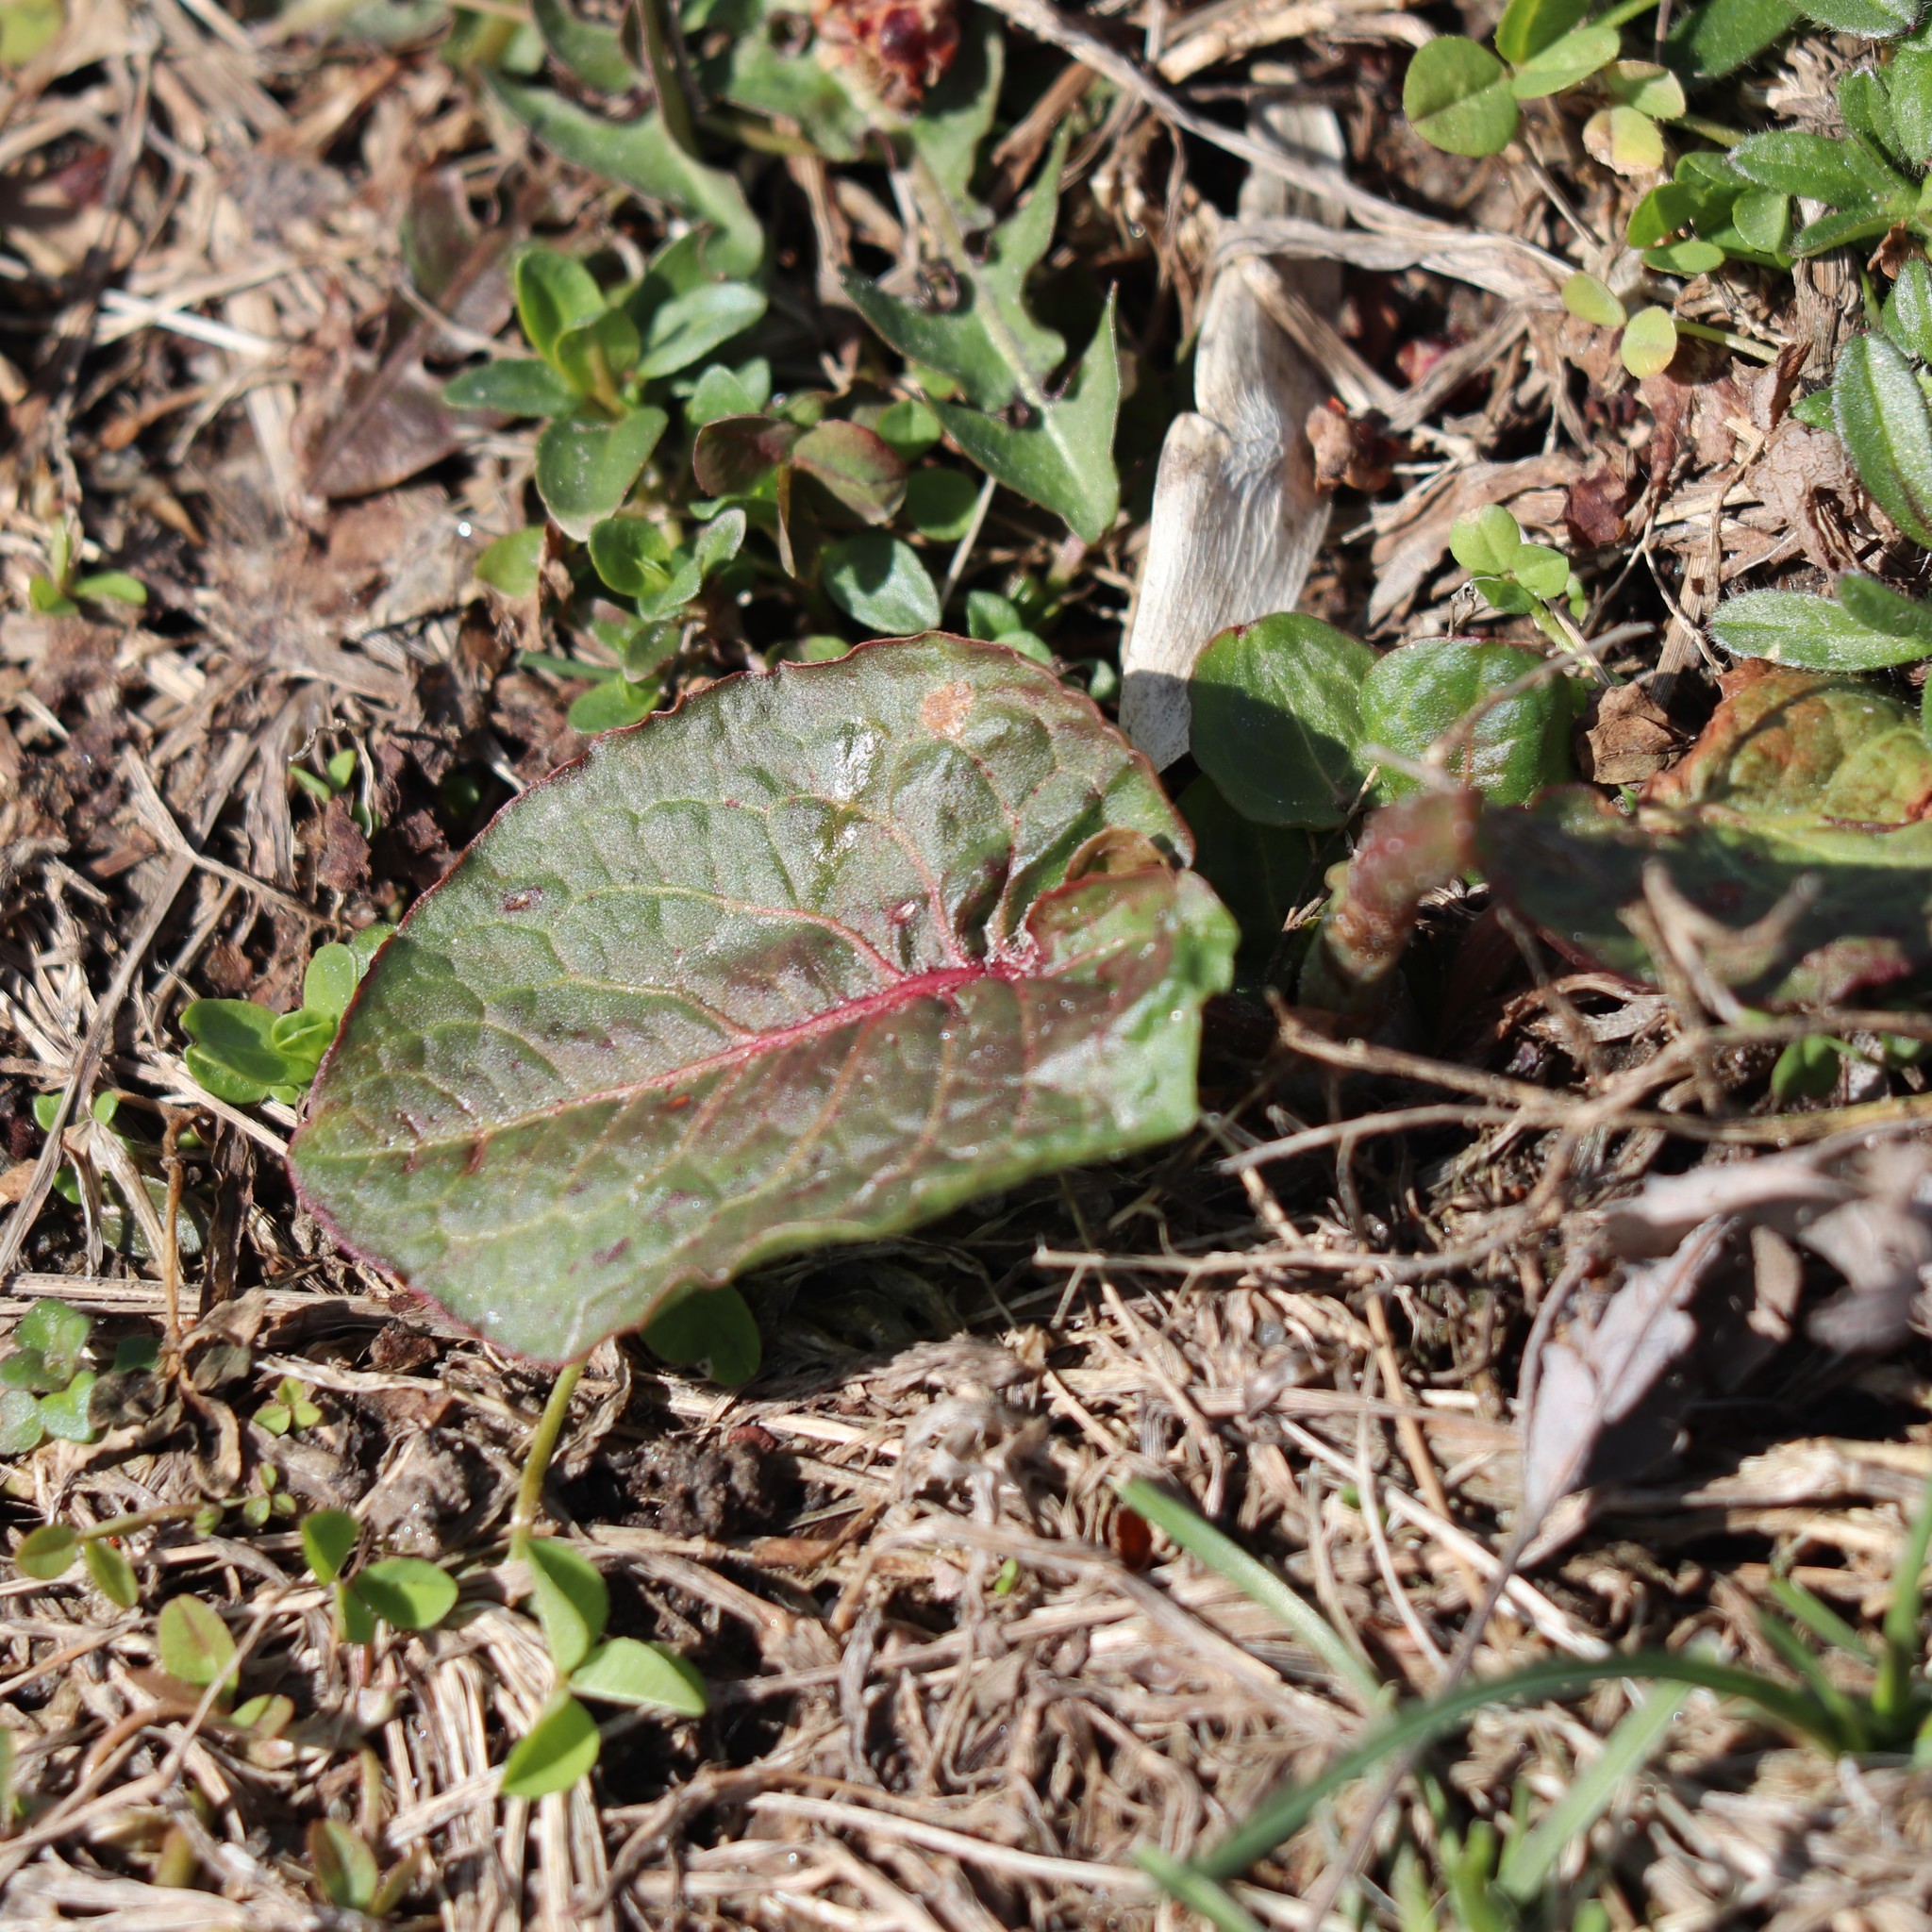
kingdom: Plantae
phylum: Tracheophyta
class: Magnoliopsida
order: Caryophyllales
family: Polygonaceae
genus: Rumex
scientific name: Rumex obtusifolius
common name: Bitter dock
